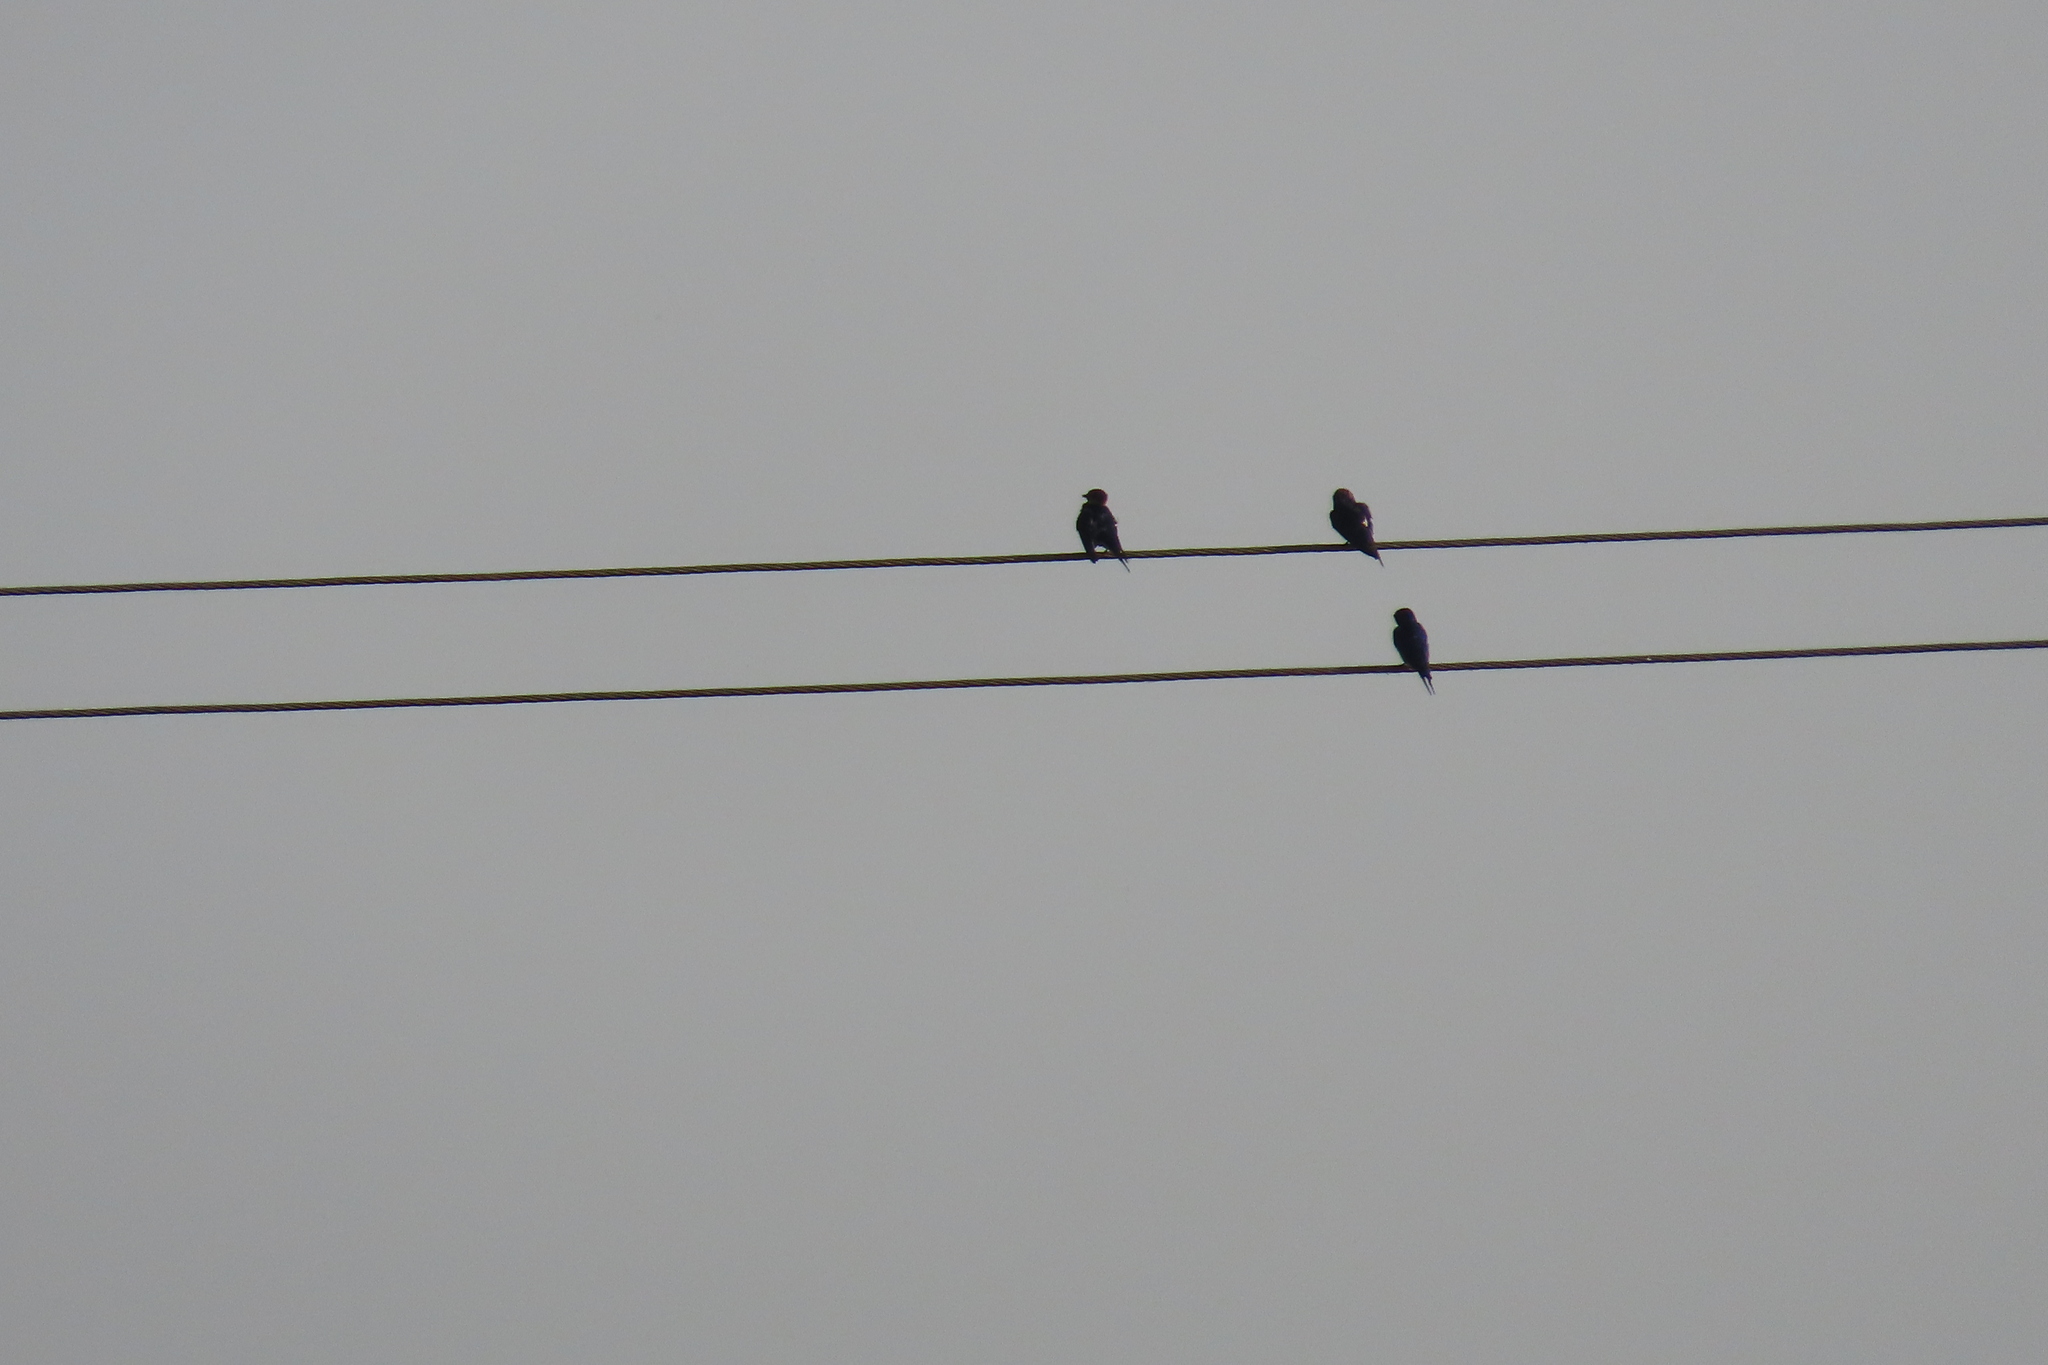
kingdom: Animalia
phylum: Chordata
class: Aves
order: Passeriformes
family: Hirundinidae
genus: Hirundo
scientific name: Hirundo rustica
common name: Barn swallow
